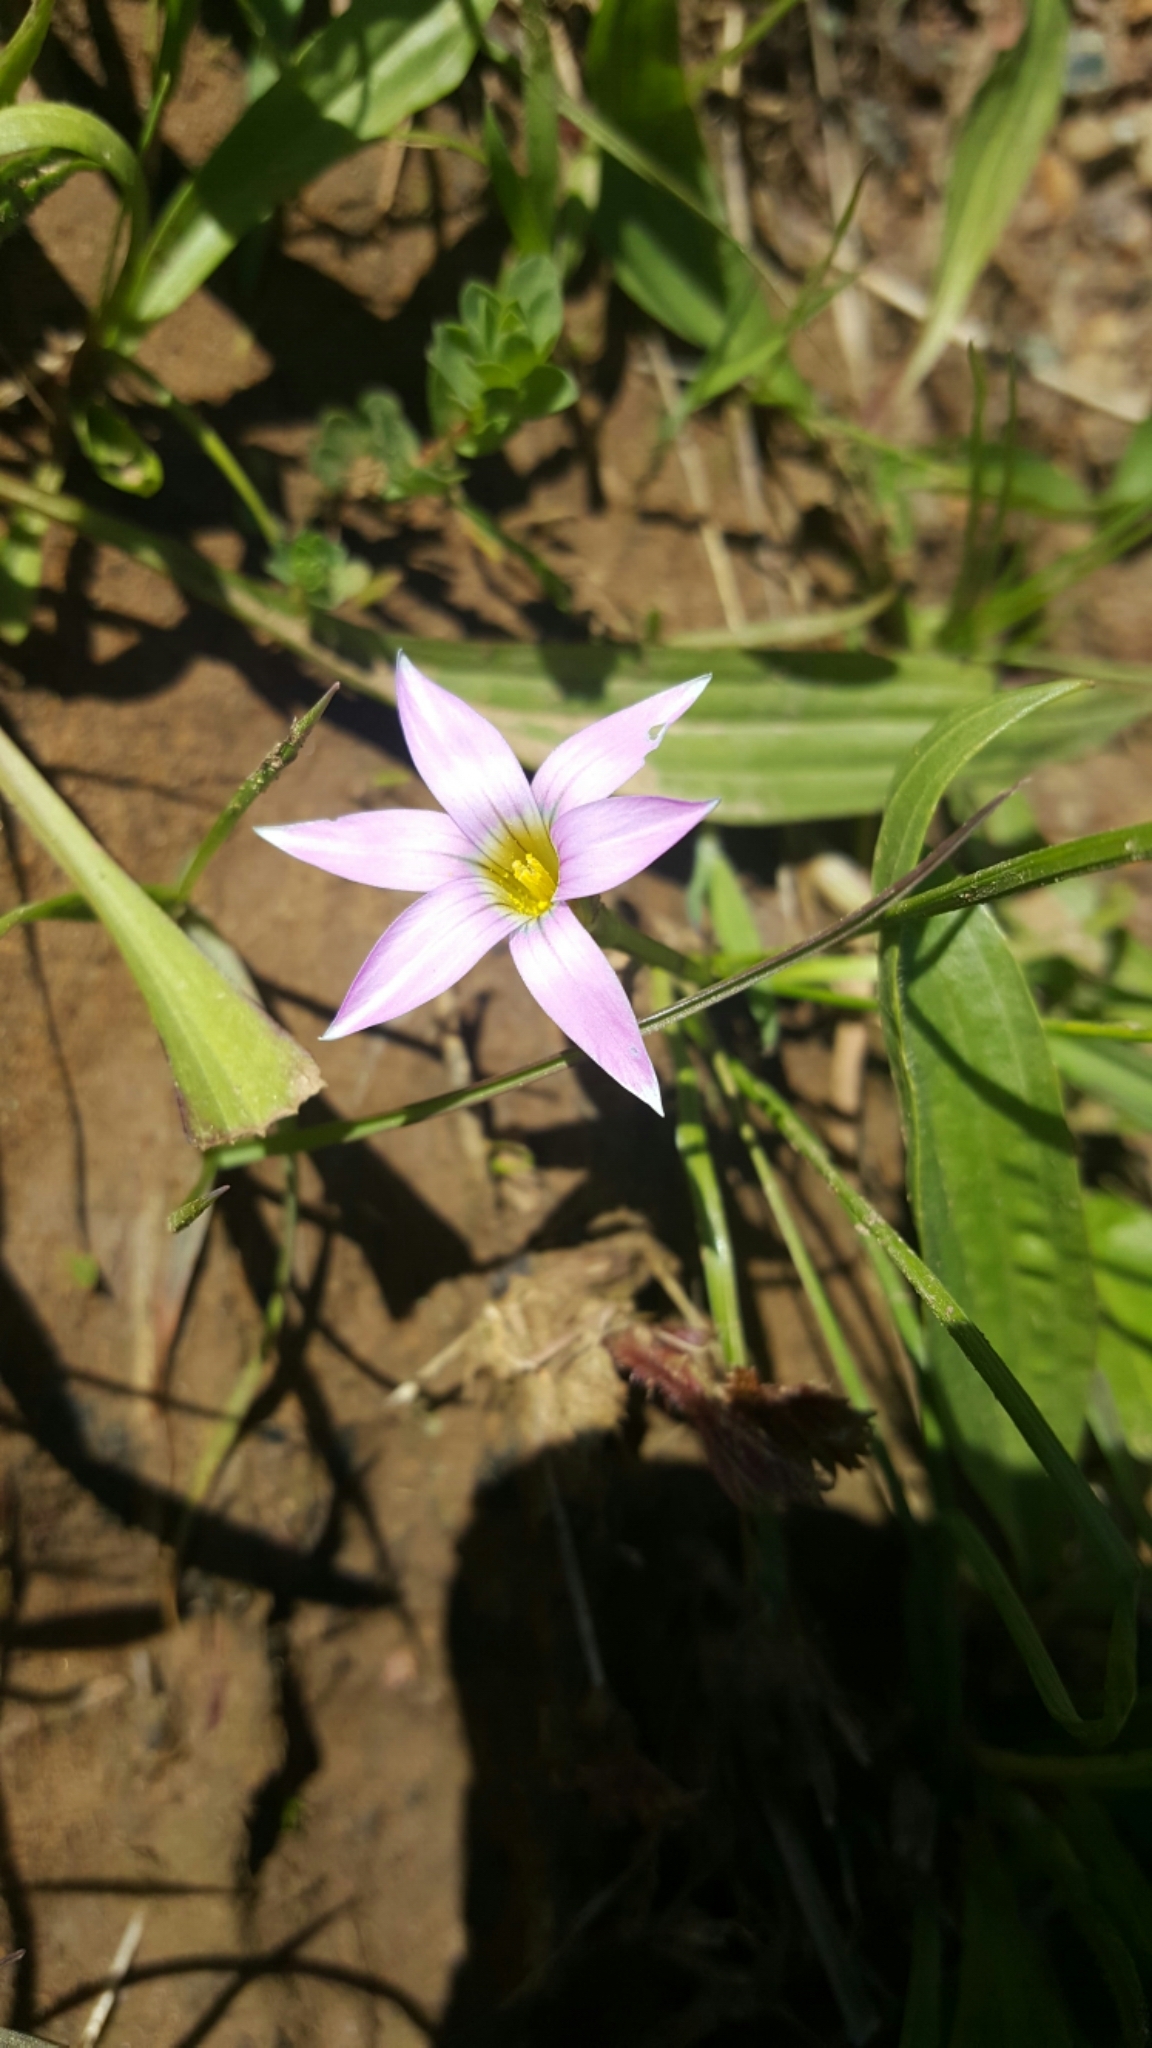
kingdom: Plantae
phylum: Tracheophyta
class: Liliopsida
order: Asparagales
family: Iridaceae
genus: Romulea
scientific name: Romulea rosea
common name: Oniongrass
